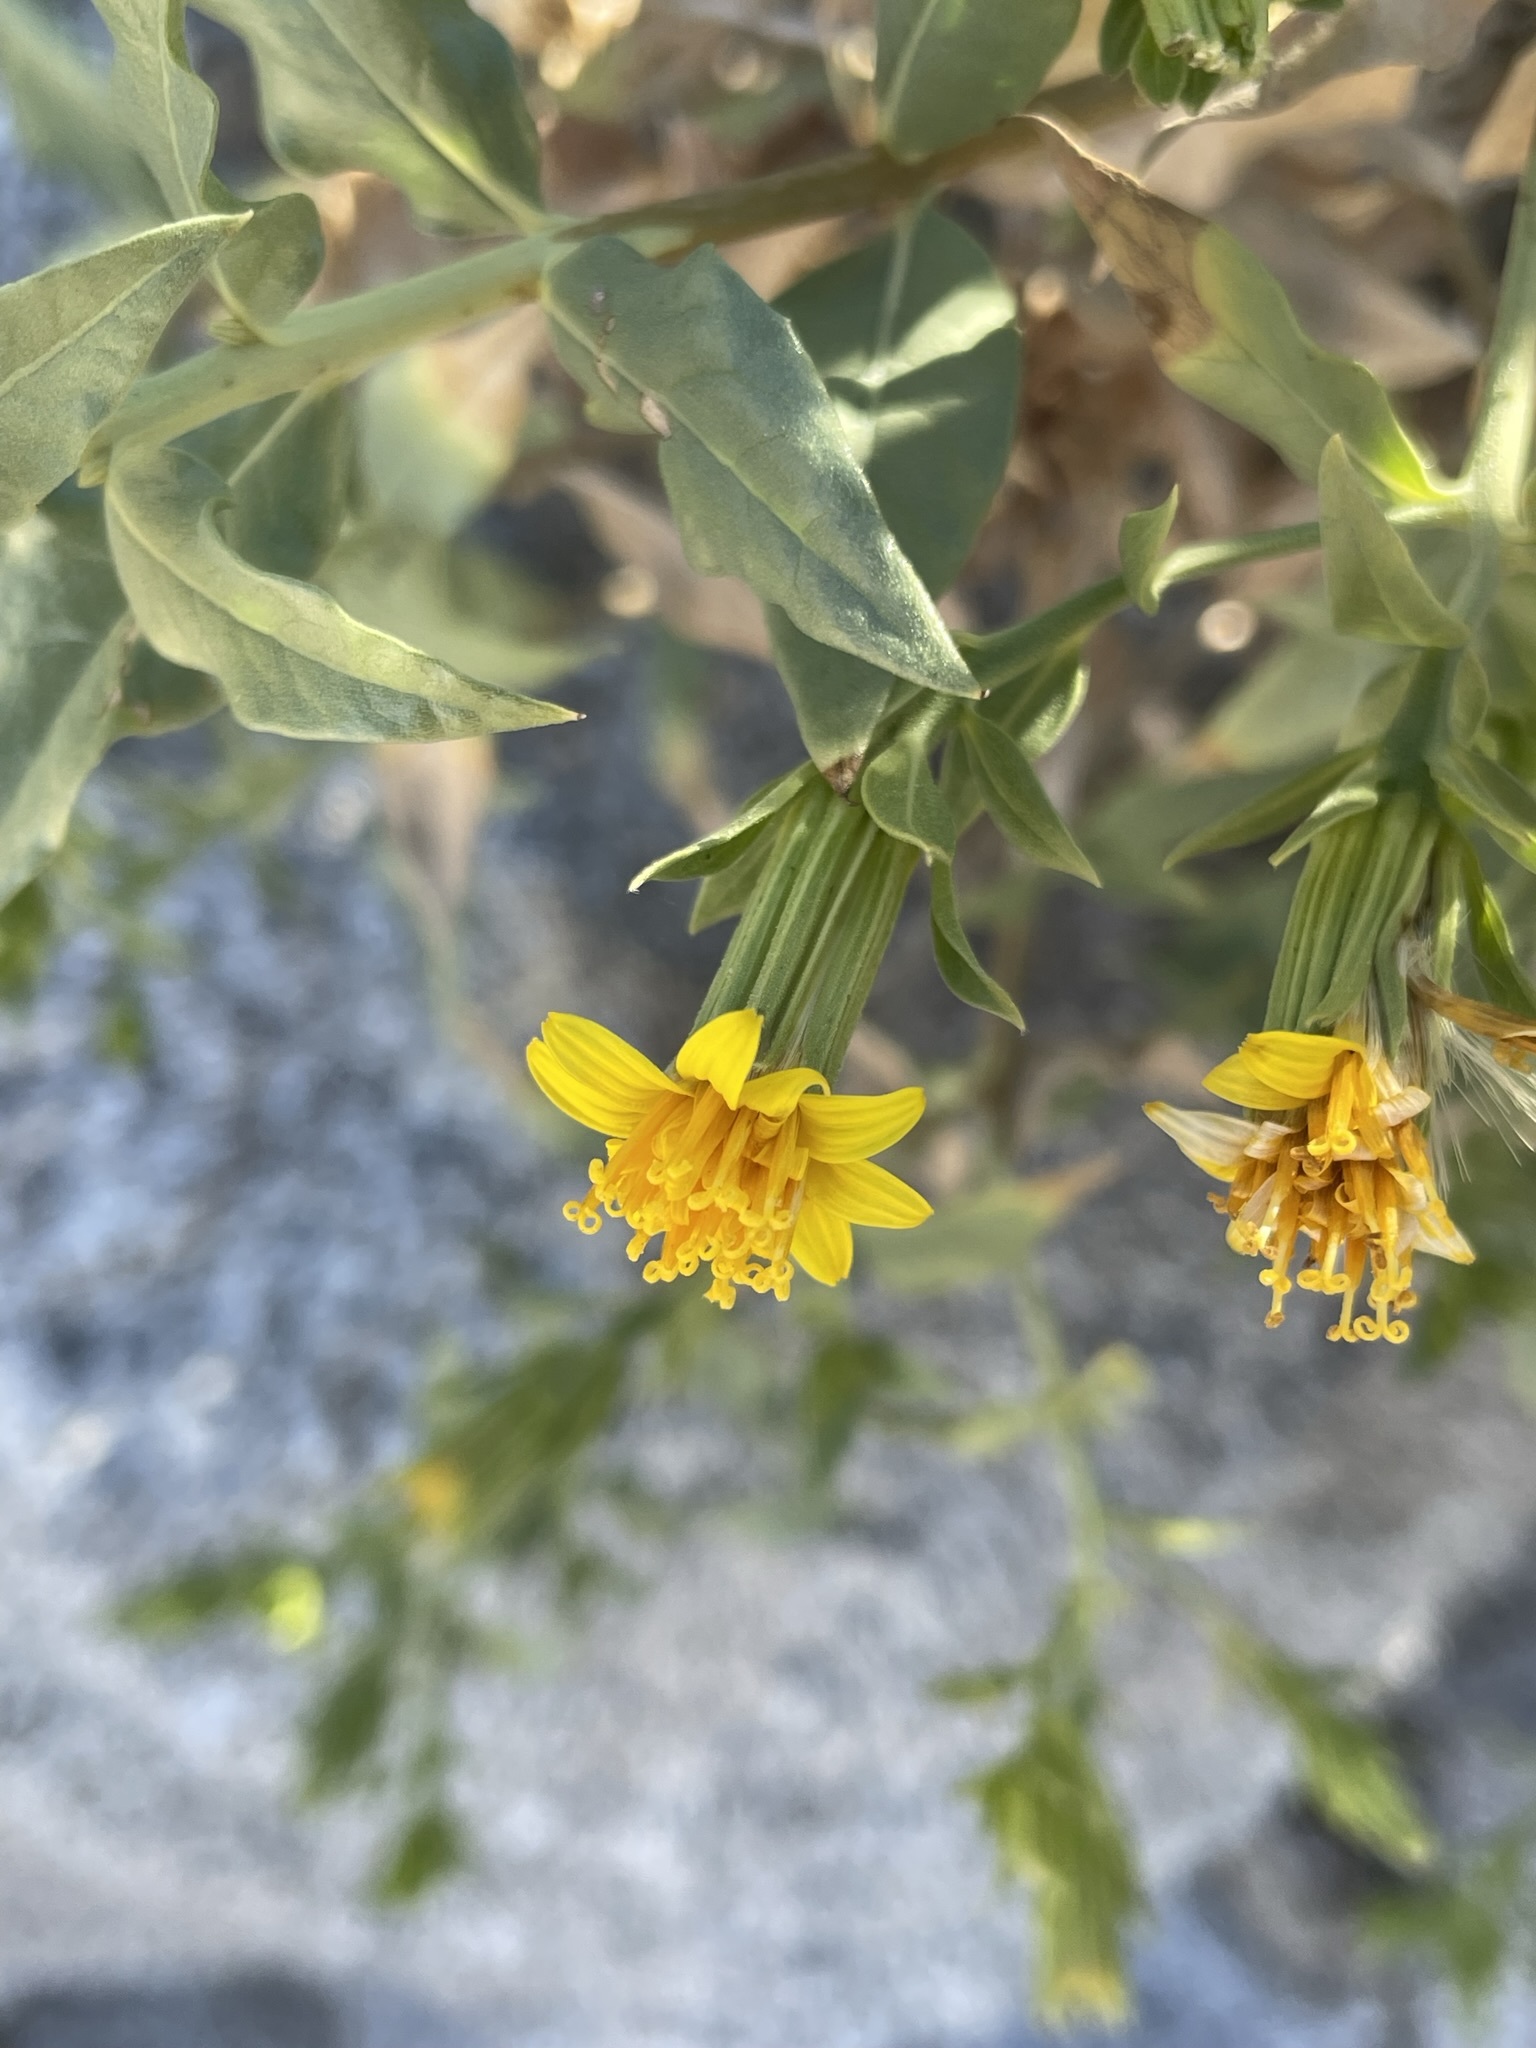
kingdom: Plantae
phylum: Tracheophyta
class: Magnoliopsida
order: Asterales
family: Asteraceae
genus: Trixis
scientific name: Trixis californica
